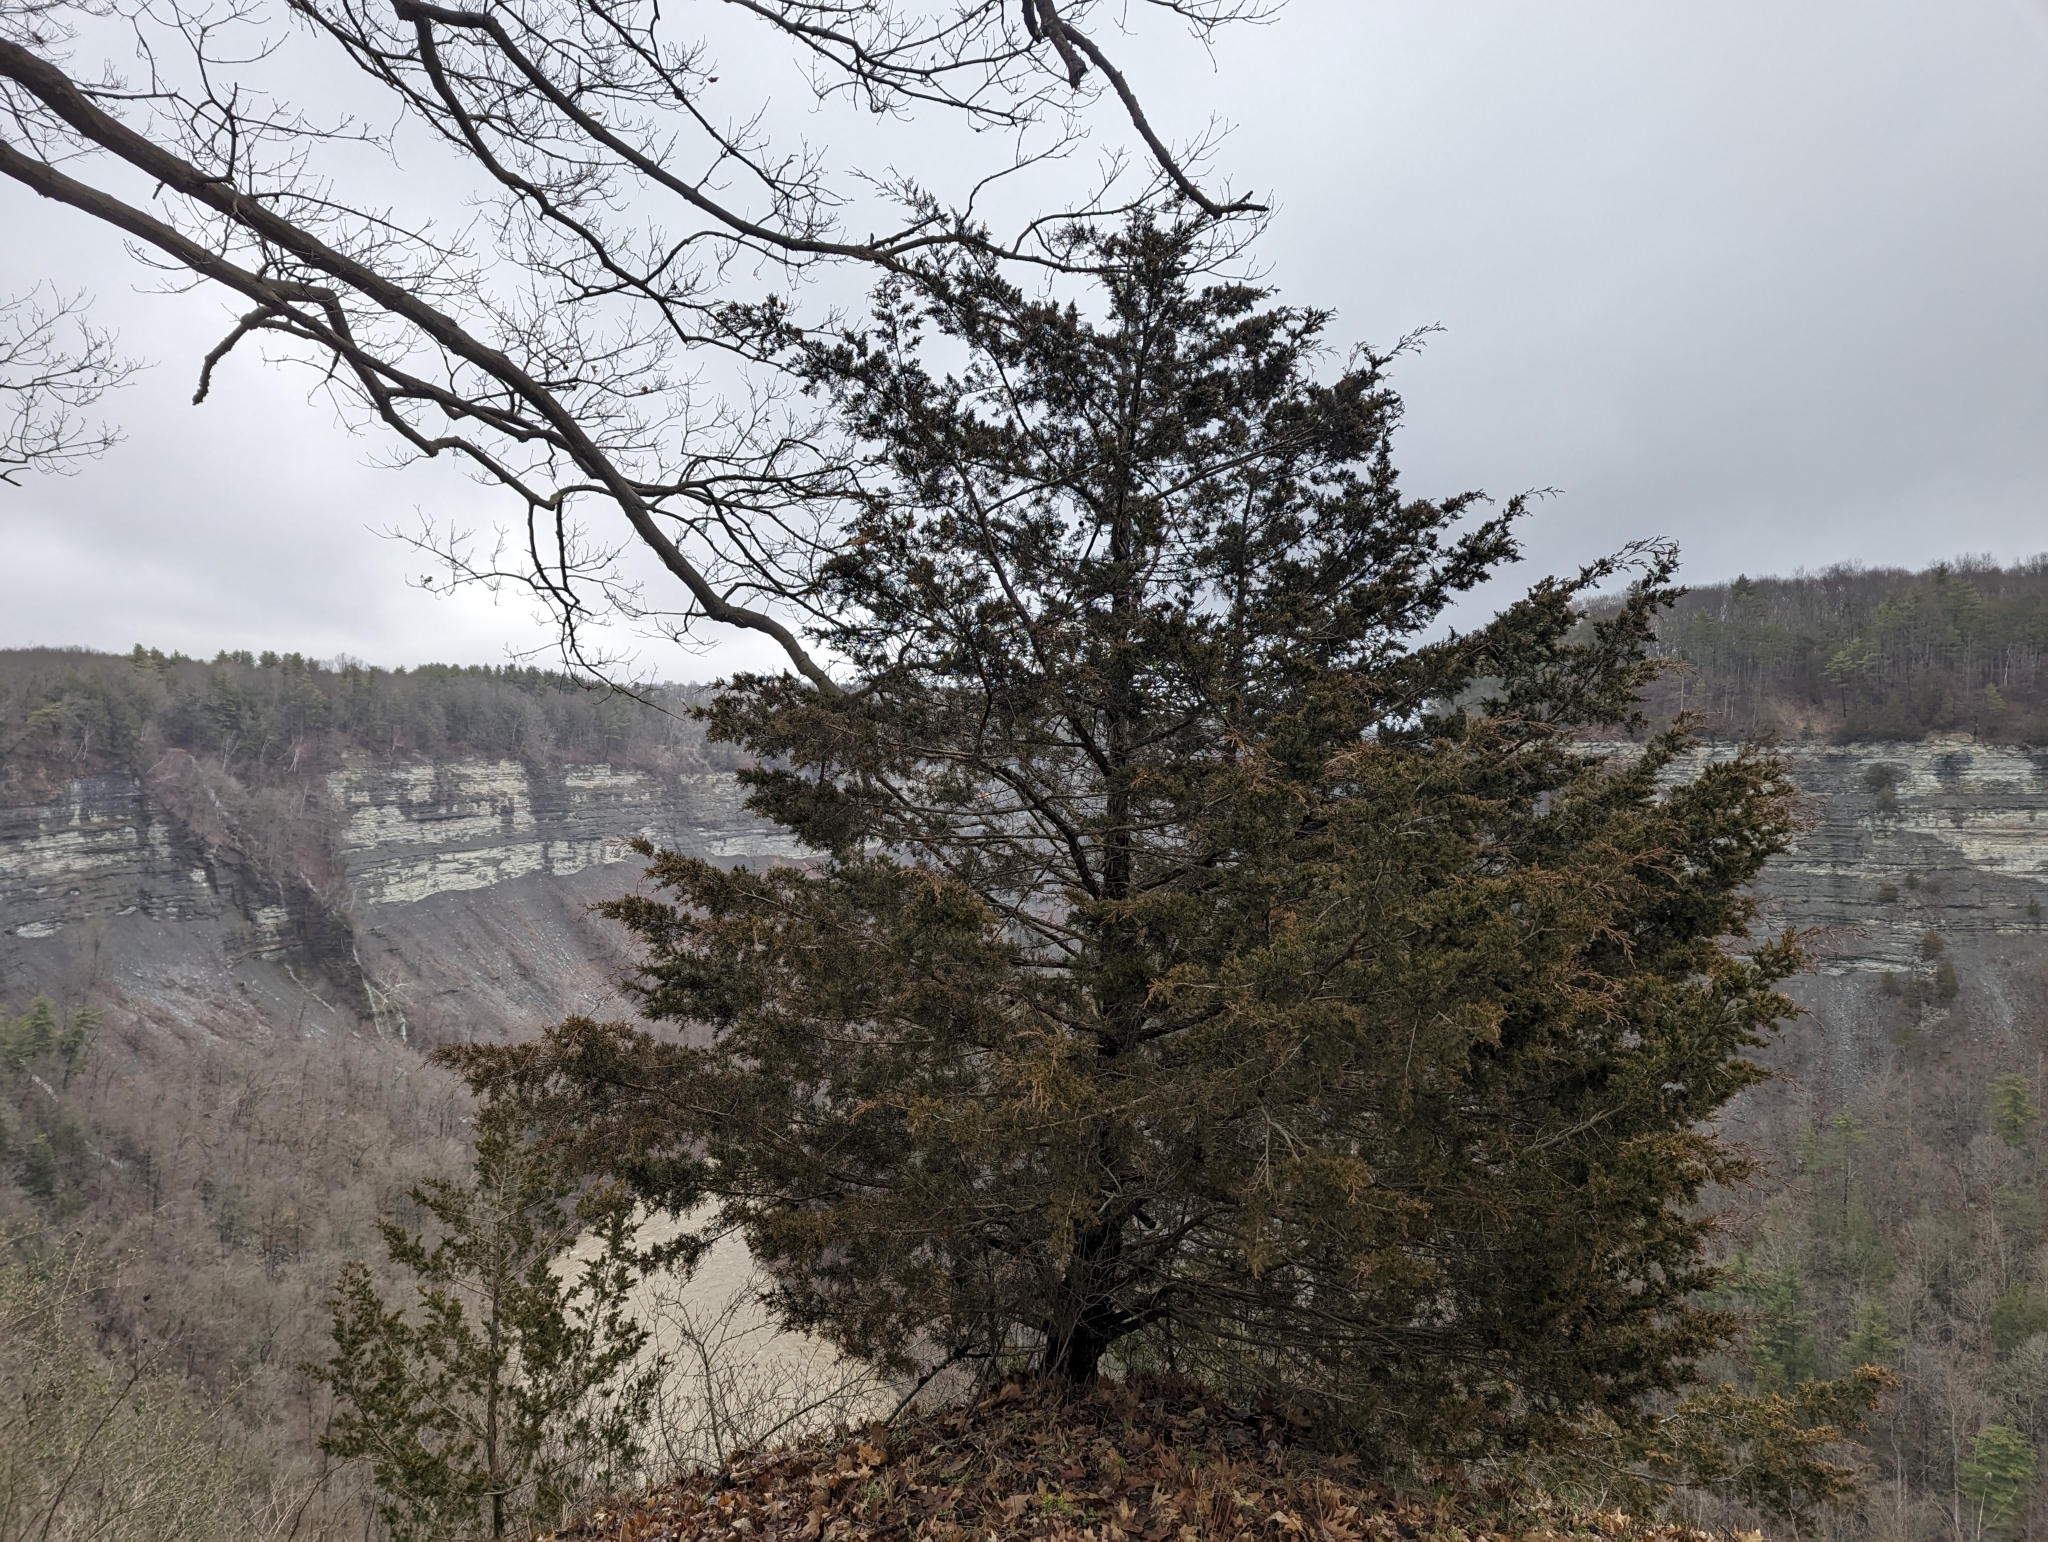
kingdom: Plantae
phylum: Tracheophyta
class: Pinopsida
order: Pinales
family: Cupressaceae
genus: Juniperus
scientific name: Juniperus virginiana
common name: Red juniper
